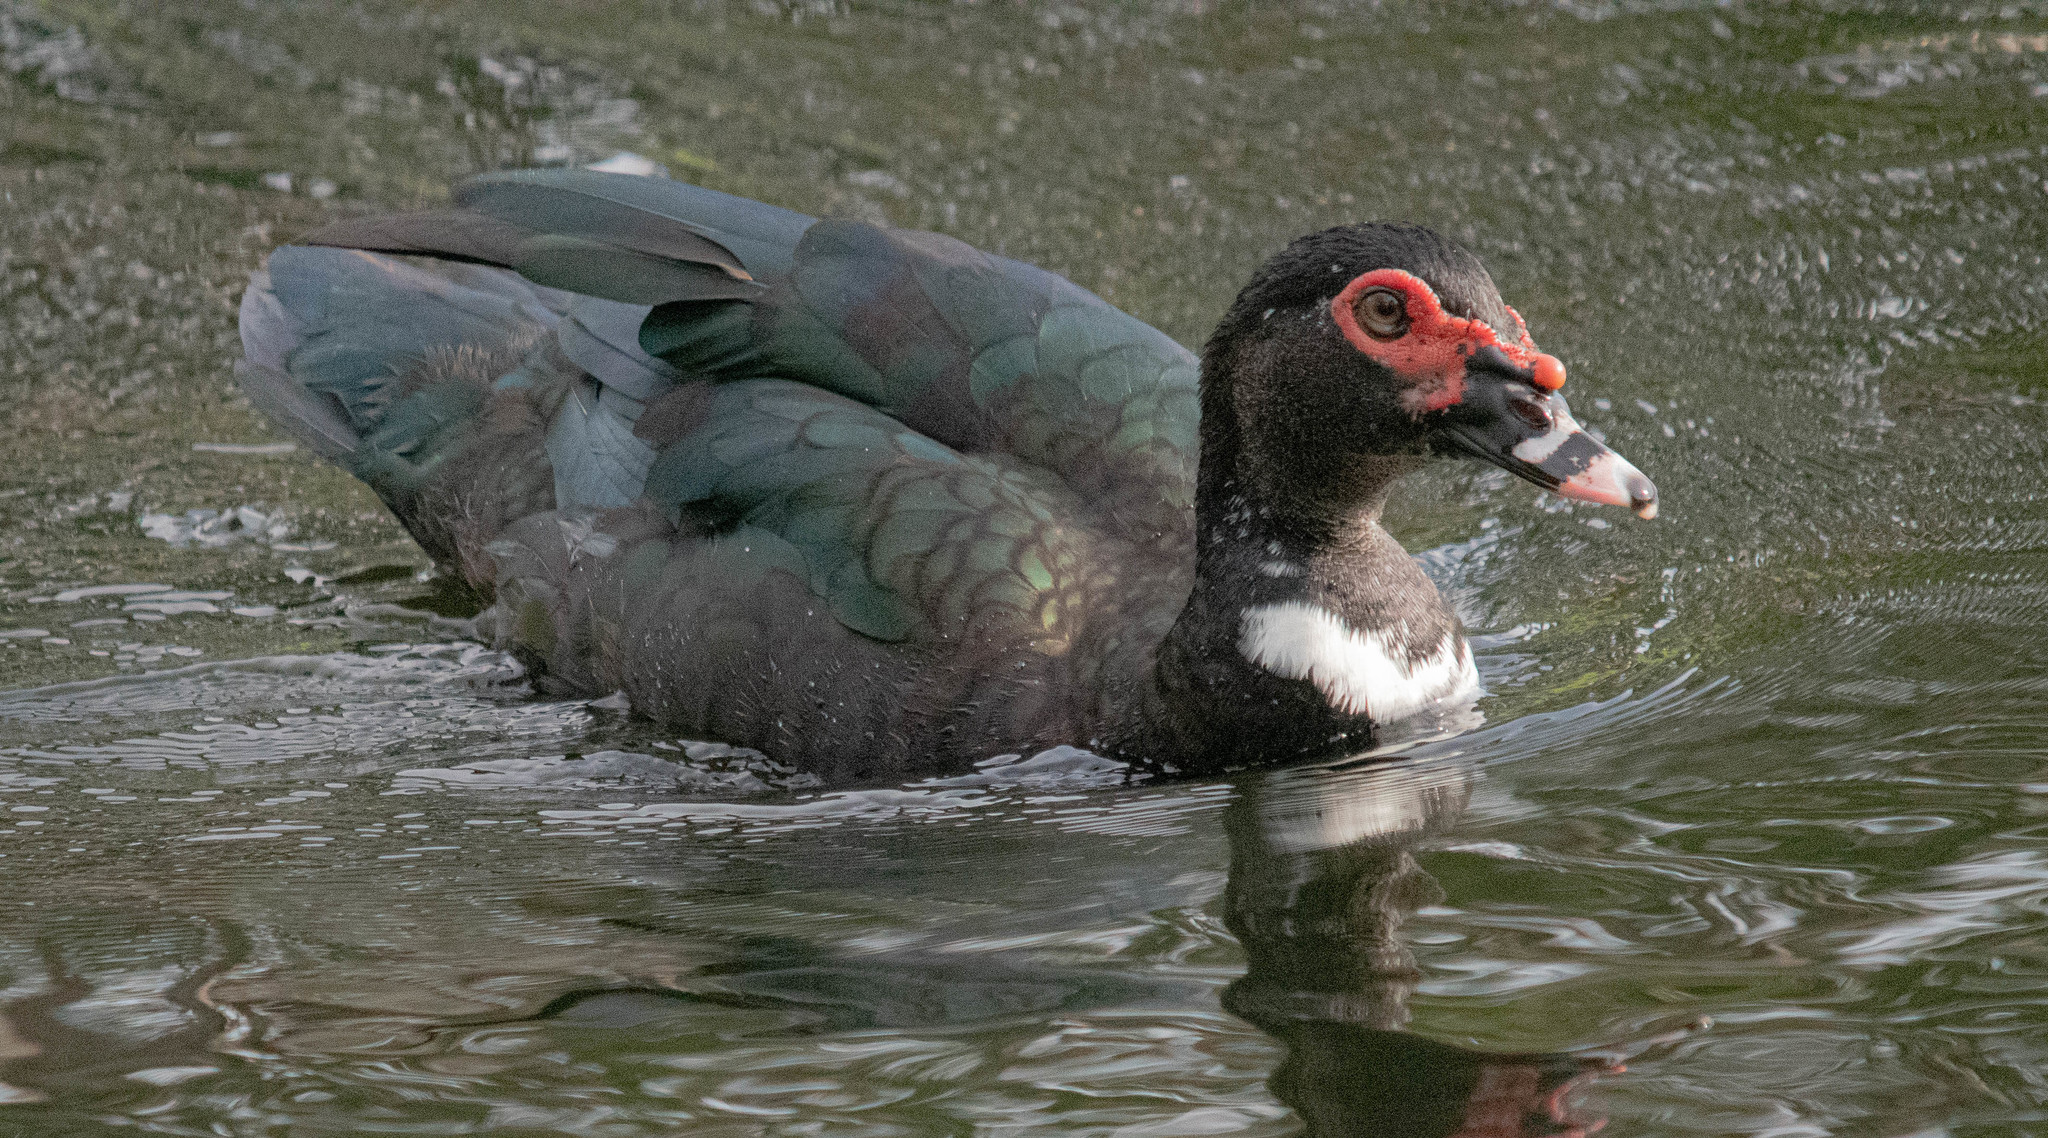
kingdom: Animalia
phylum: Chordata
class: Aves
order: Anseriformes
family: Anatidae
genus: Cairina
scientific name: Cairina moschata
